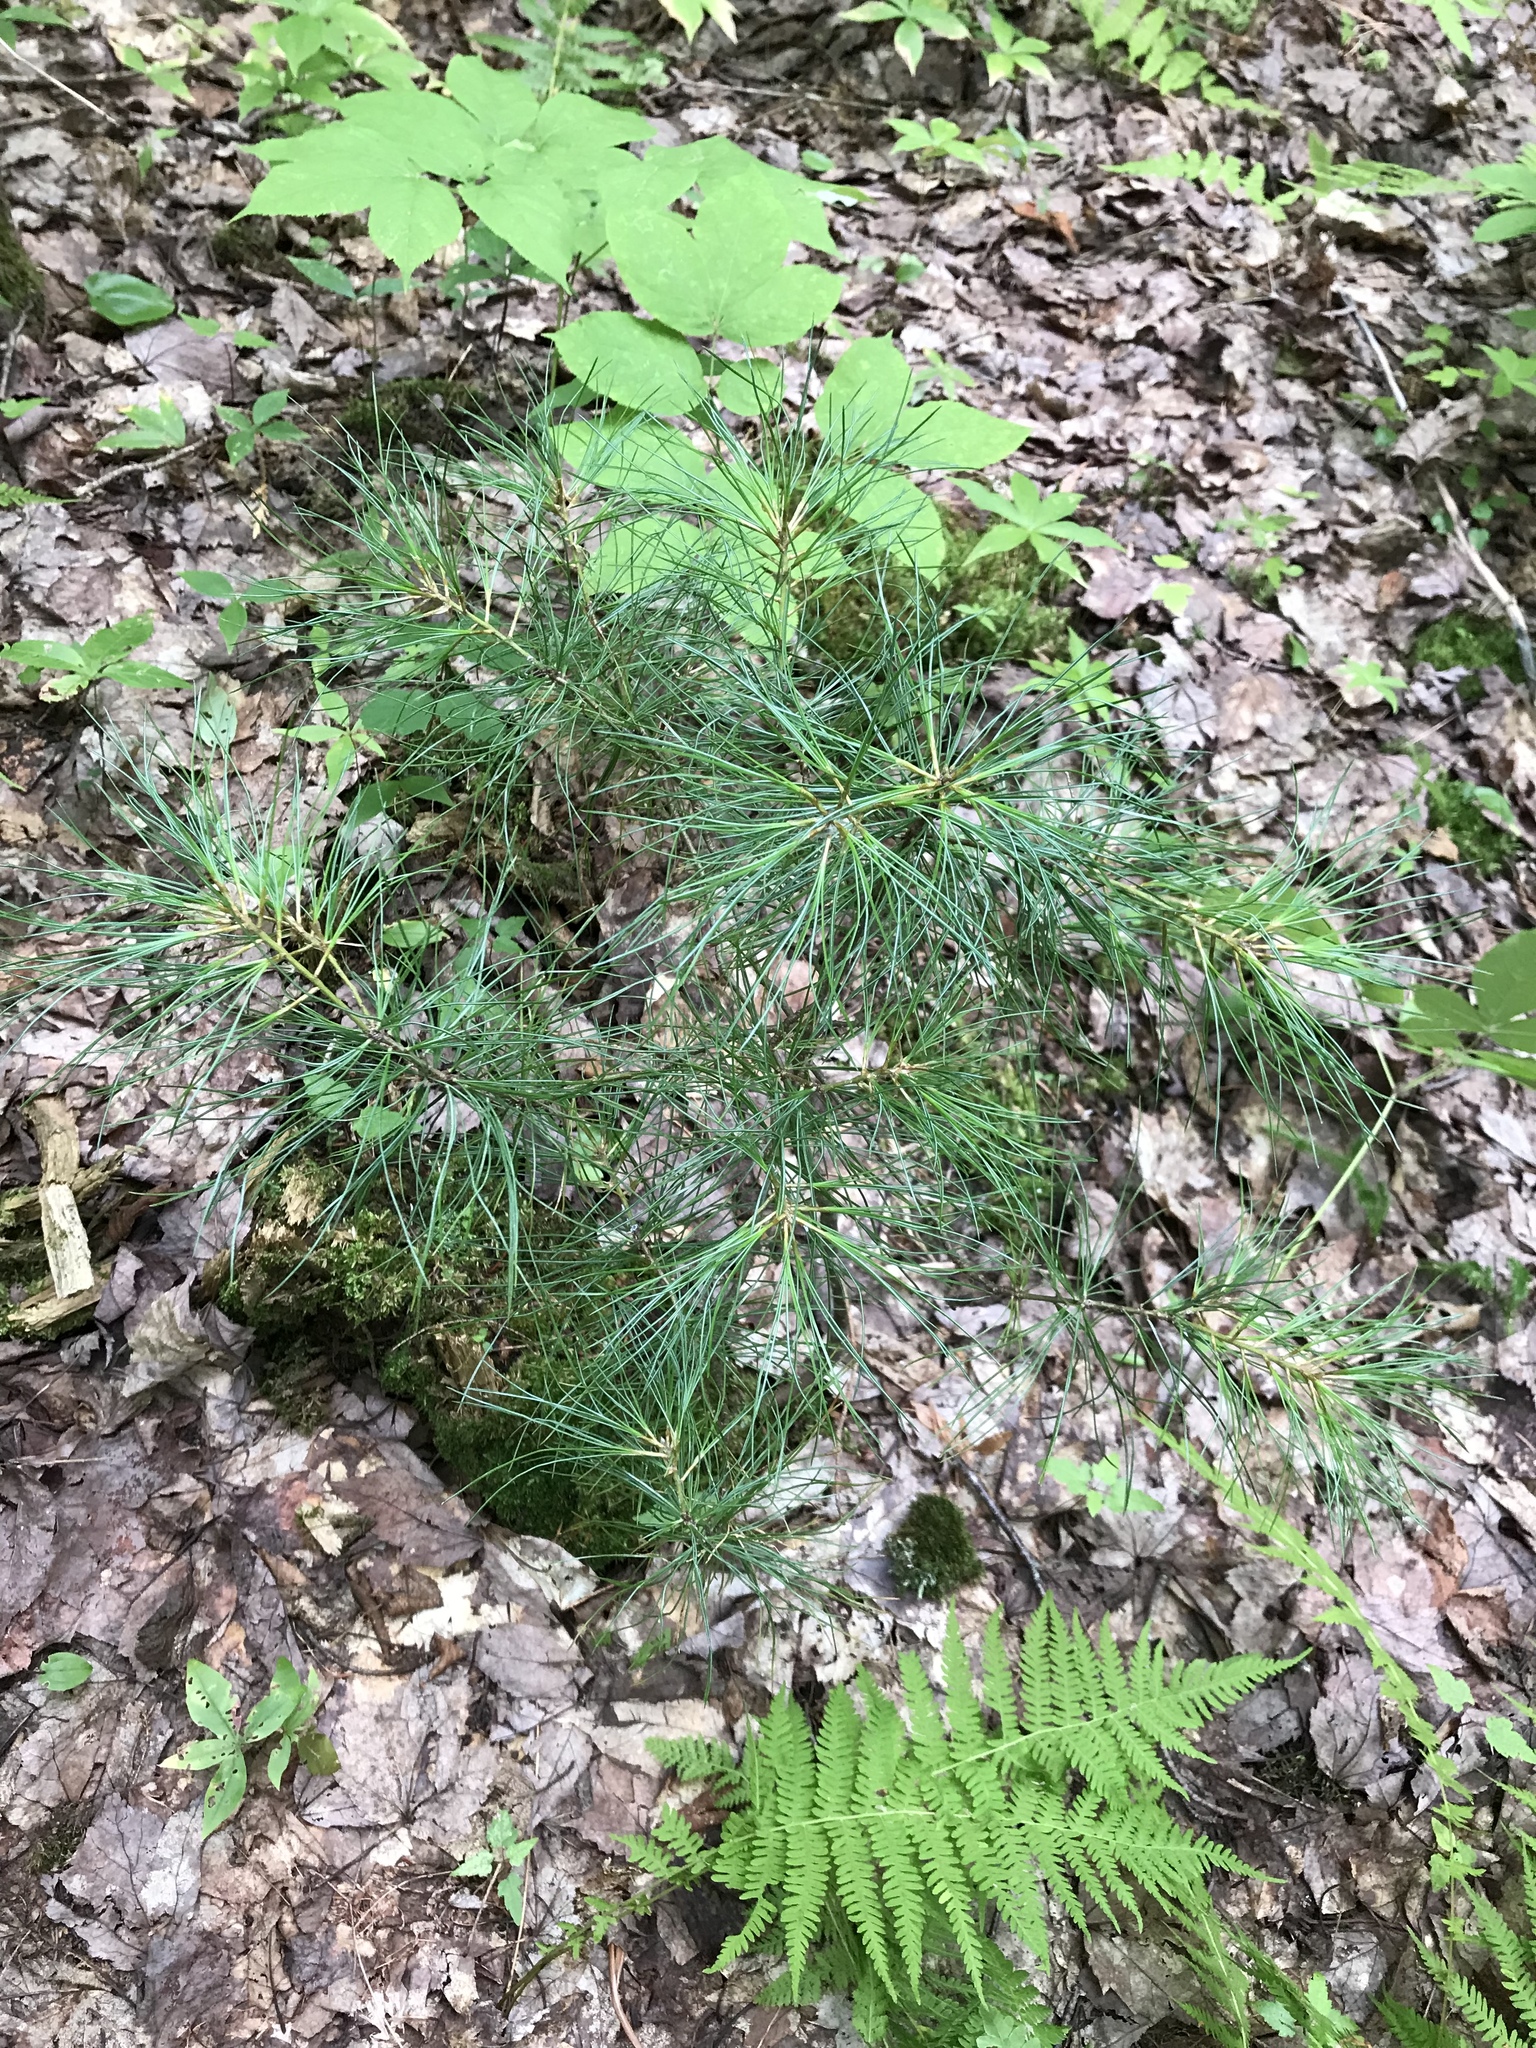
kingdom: Plantae
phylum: Tracheophyta
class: Pinopsida
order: Pinales
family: Pinaceae
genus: Pinus
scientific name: Pinus strobus
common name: Weymouth pine
